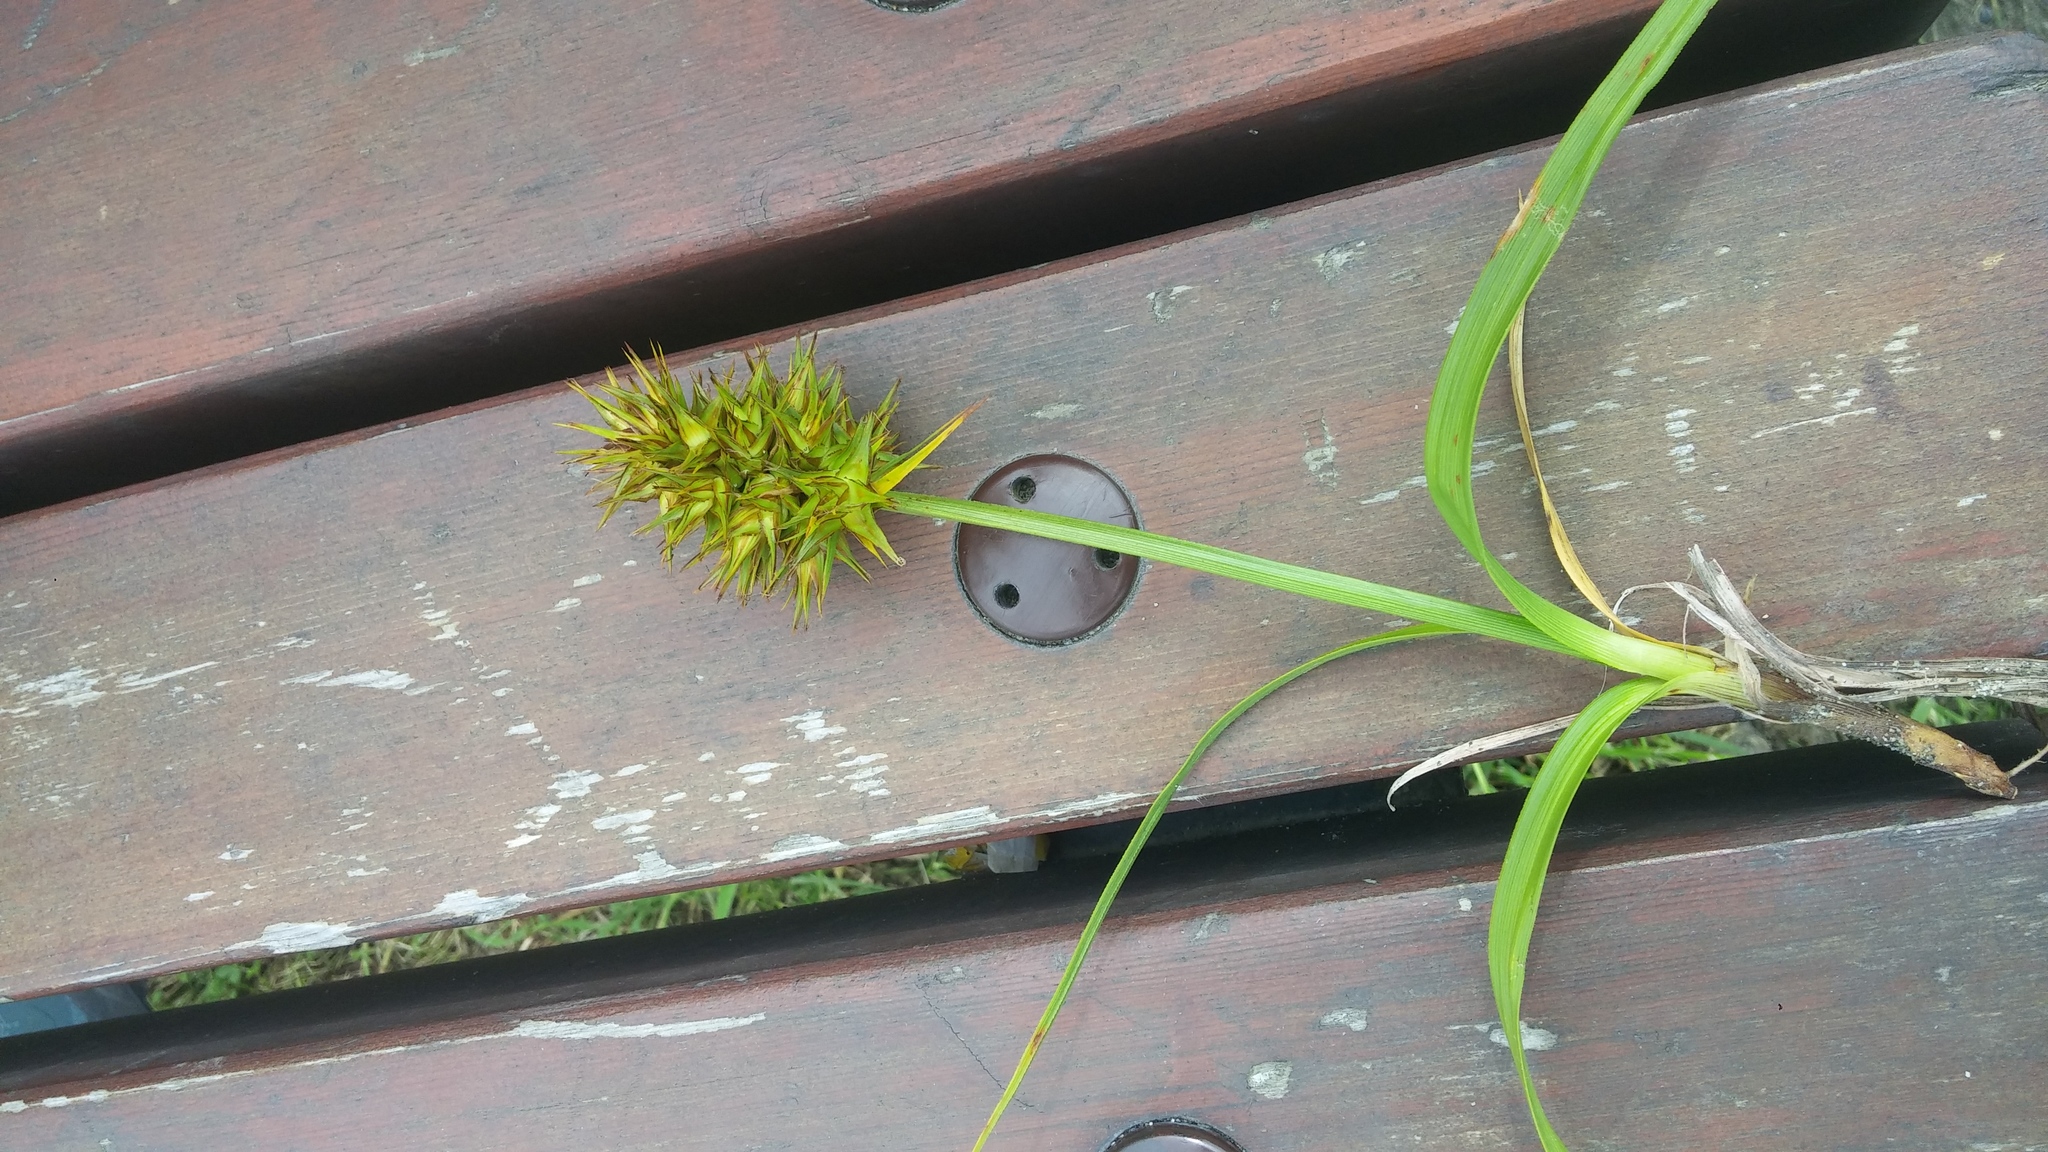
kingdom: Plantae
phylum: Tracheophyta
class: Liliopsida
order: Poales
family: Cyperaceae
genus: Carex
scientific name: Carex macrocephala
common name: Large-head sedge
